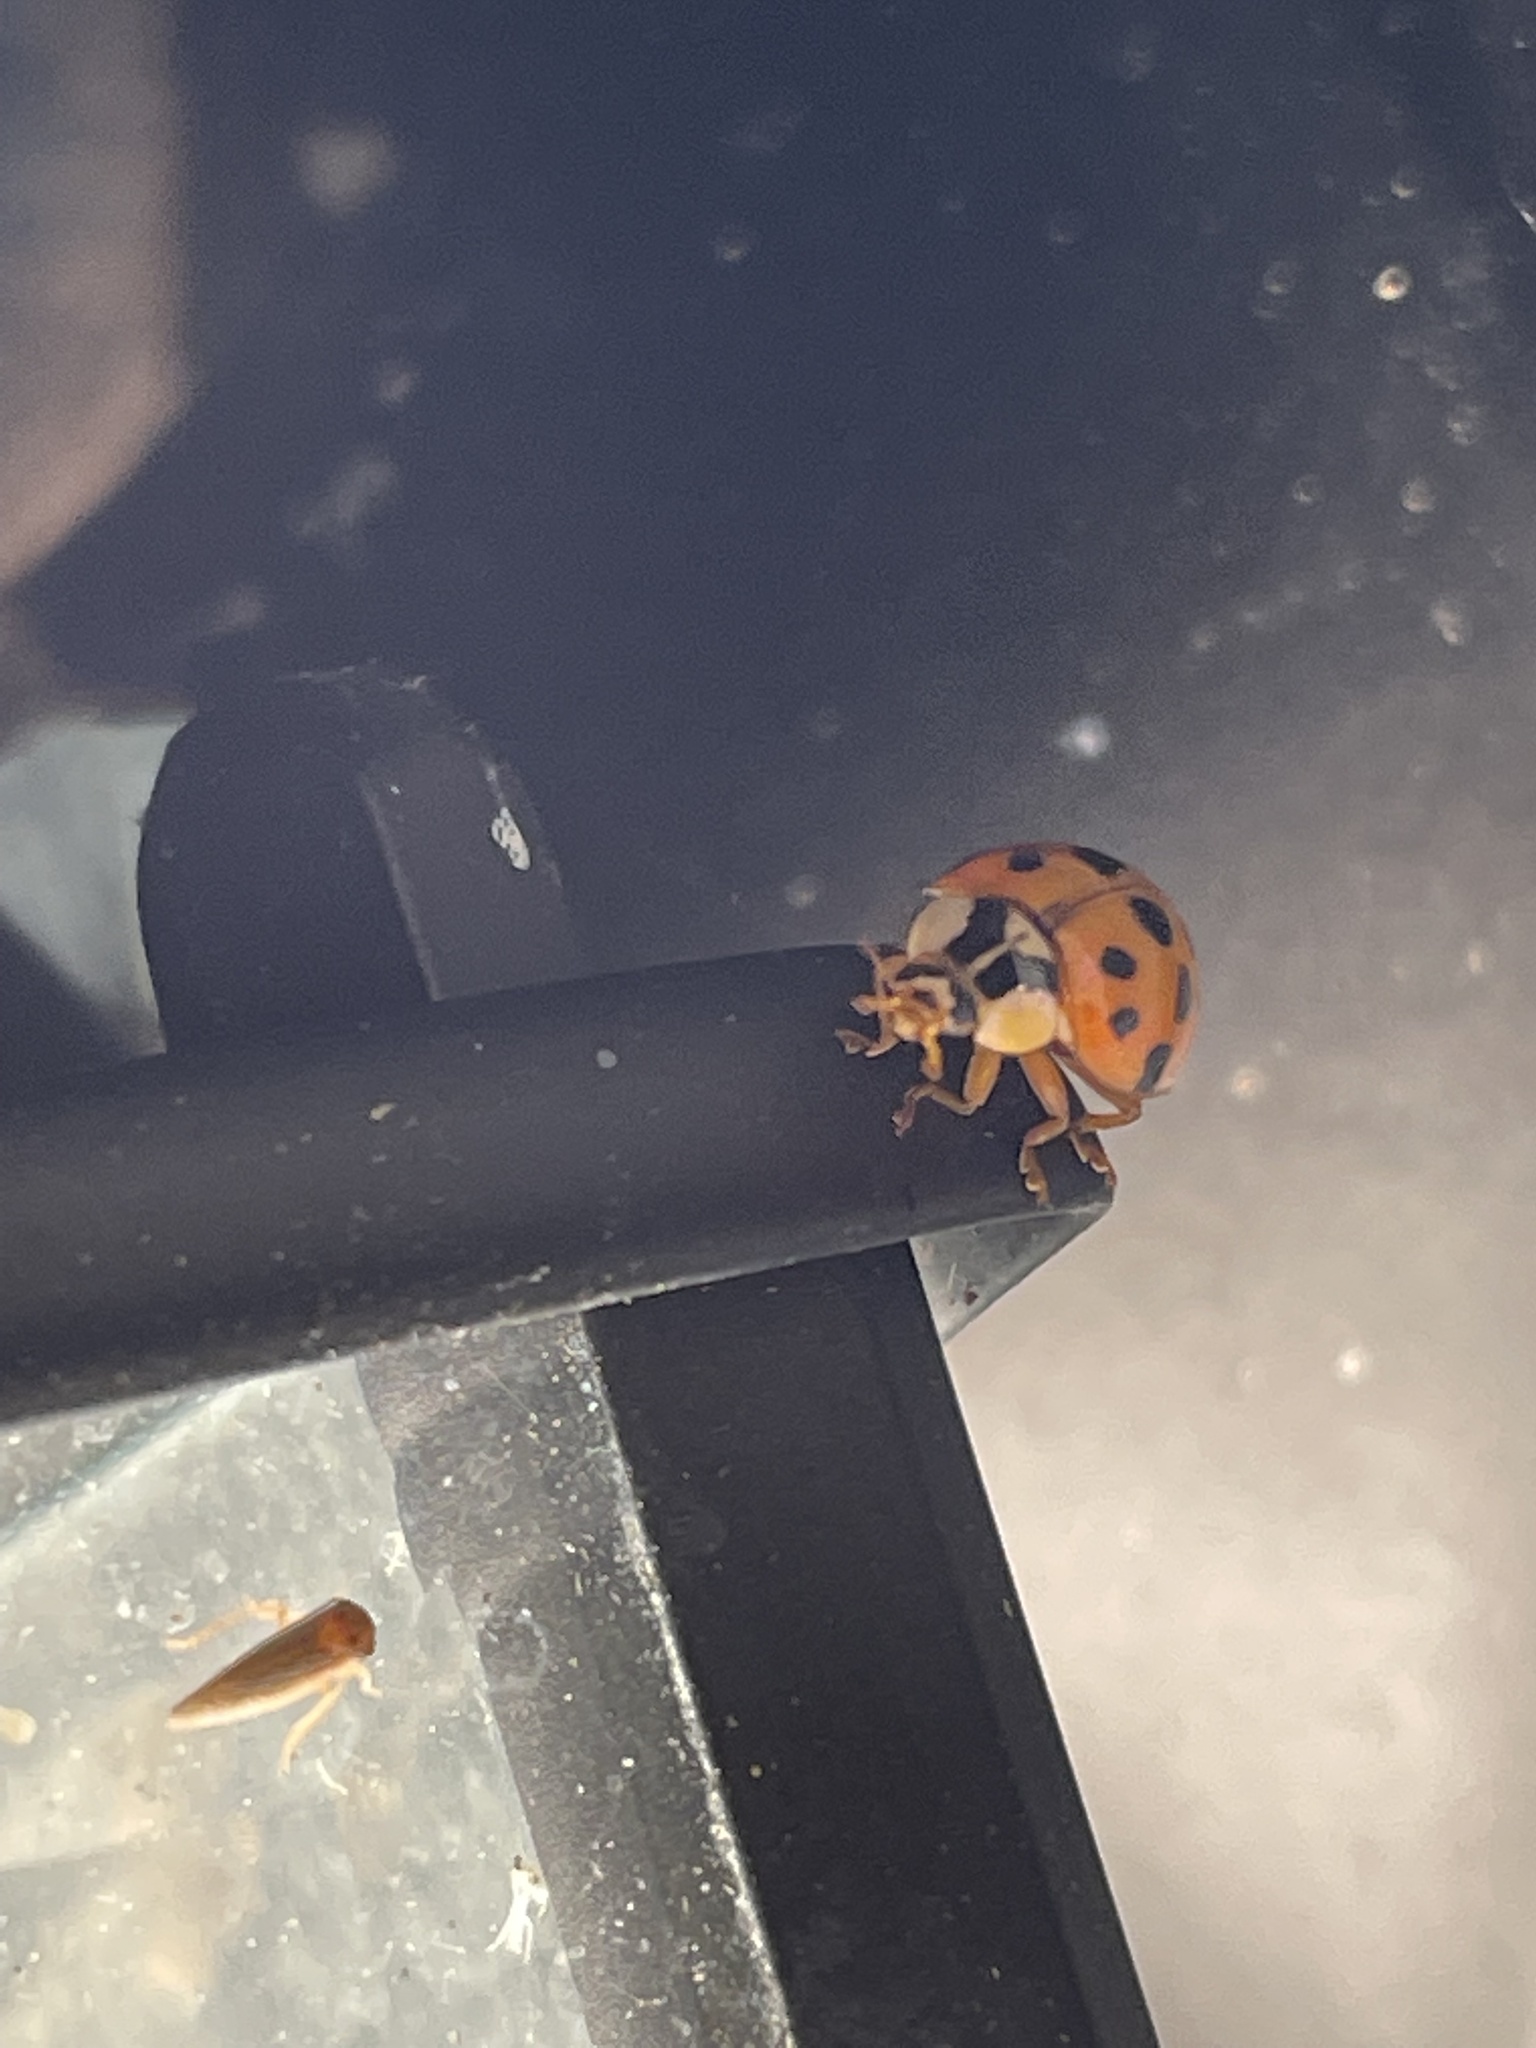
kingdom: Animalia
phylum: Arthropoda
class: Insecta
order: Coleoptera
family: Coccinellidae
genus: Harmonia
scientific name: Harmonia axyridis
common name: Harlequin ladybird
